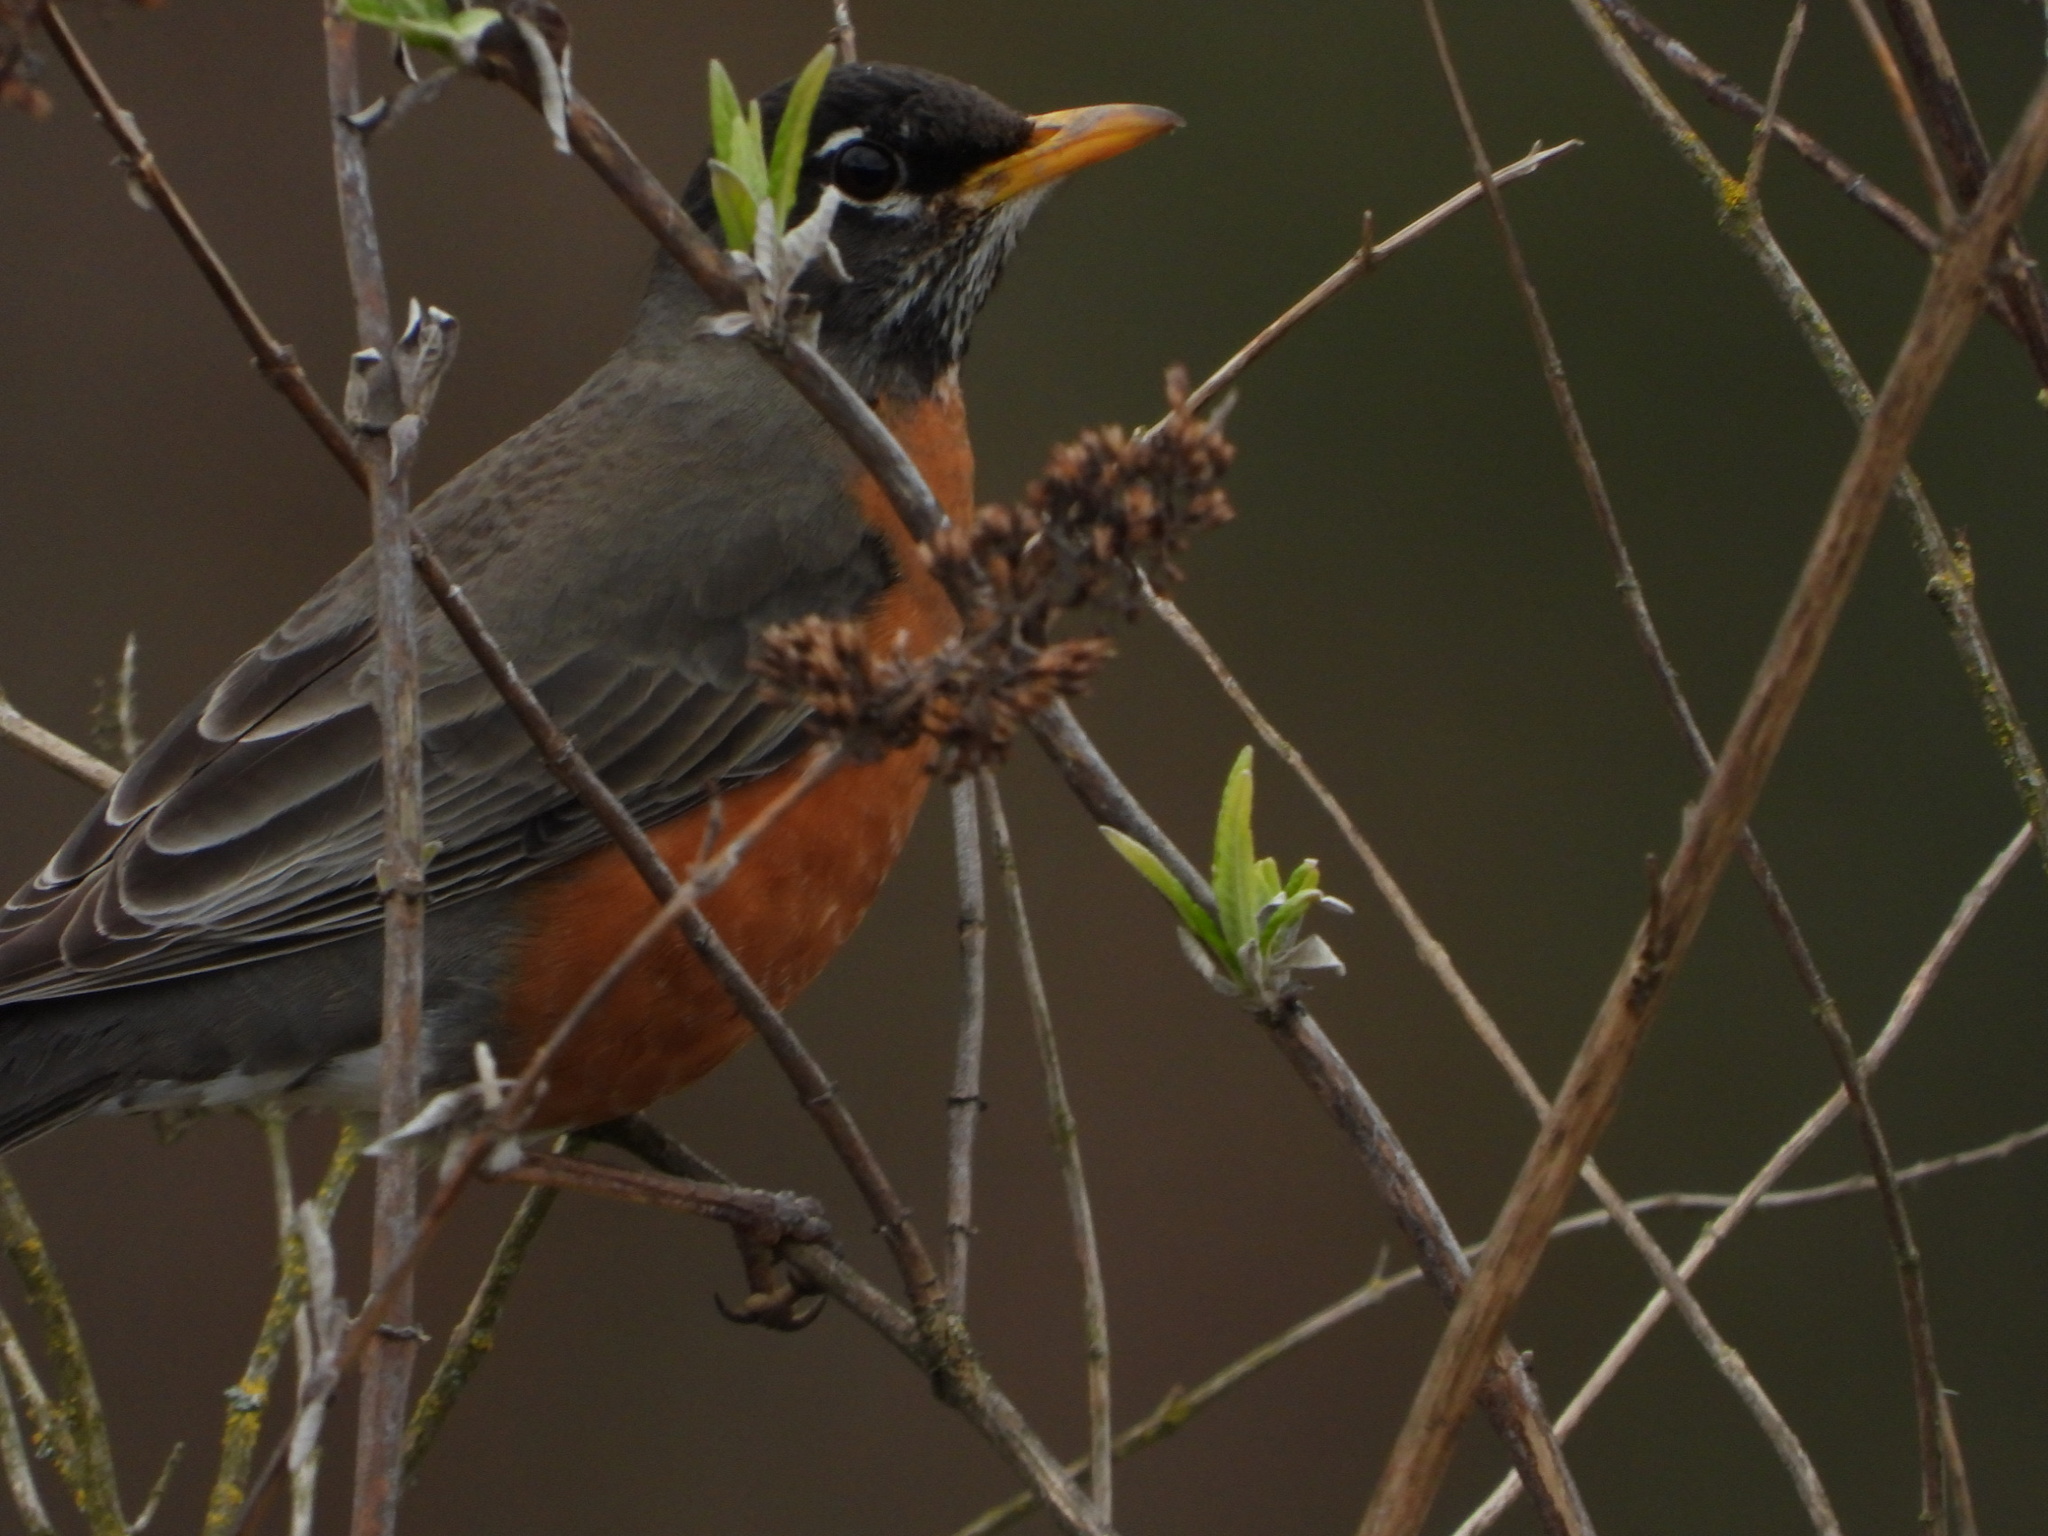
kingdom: Animalia
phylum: Chordata
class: Aves
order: Passeriformes
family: Turdidae
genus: Turdus
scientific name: Turdus migratorius
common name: American robin
